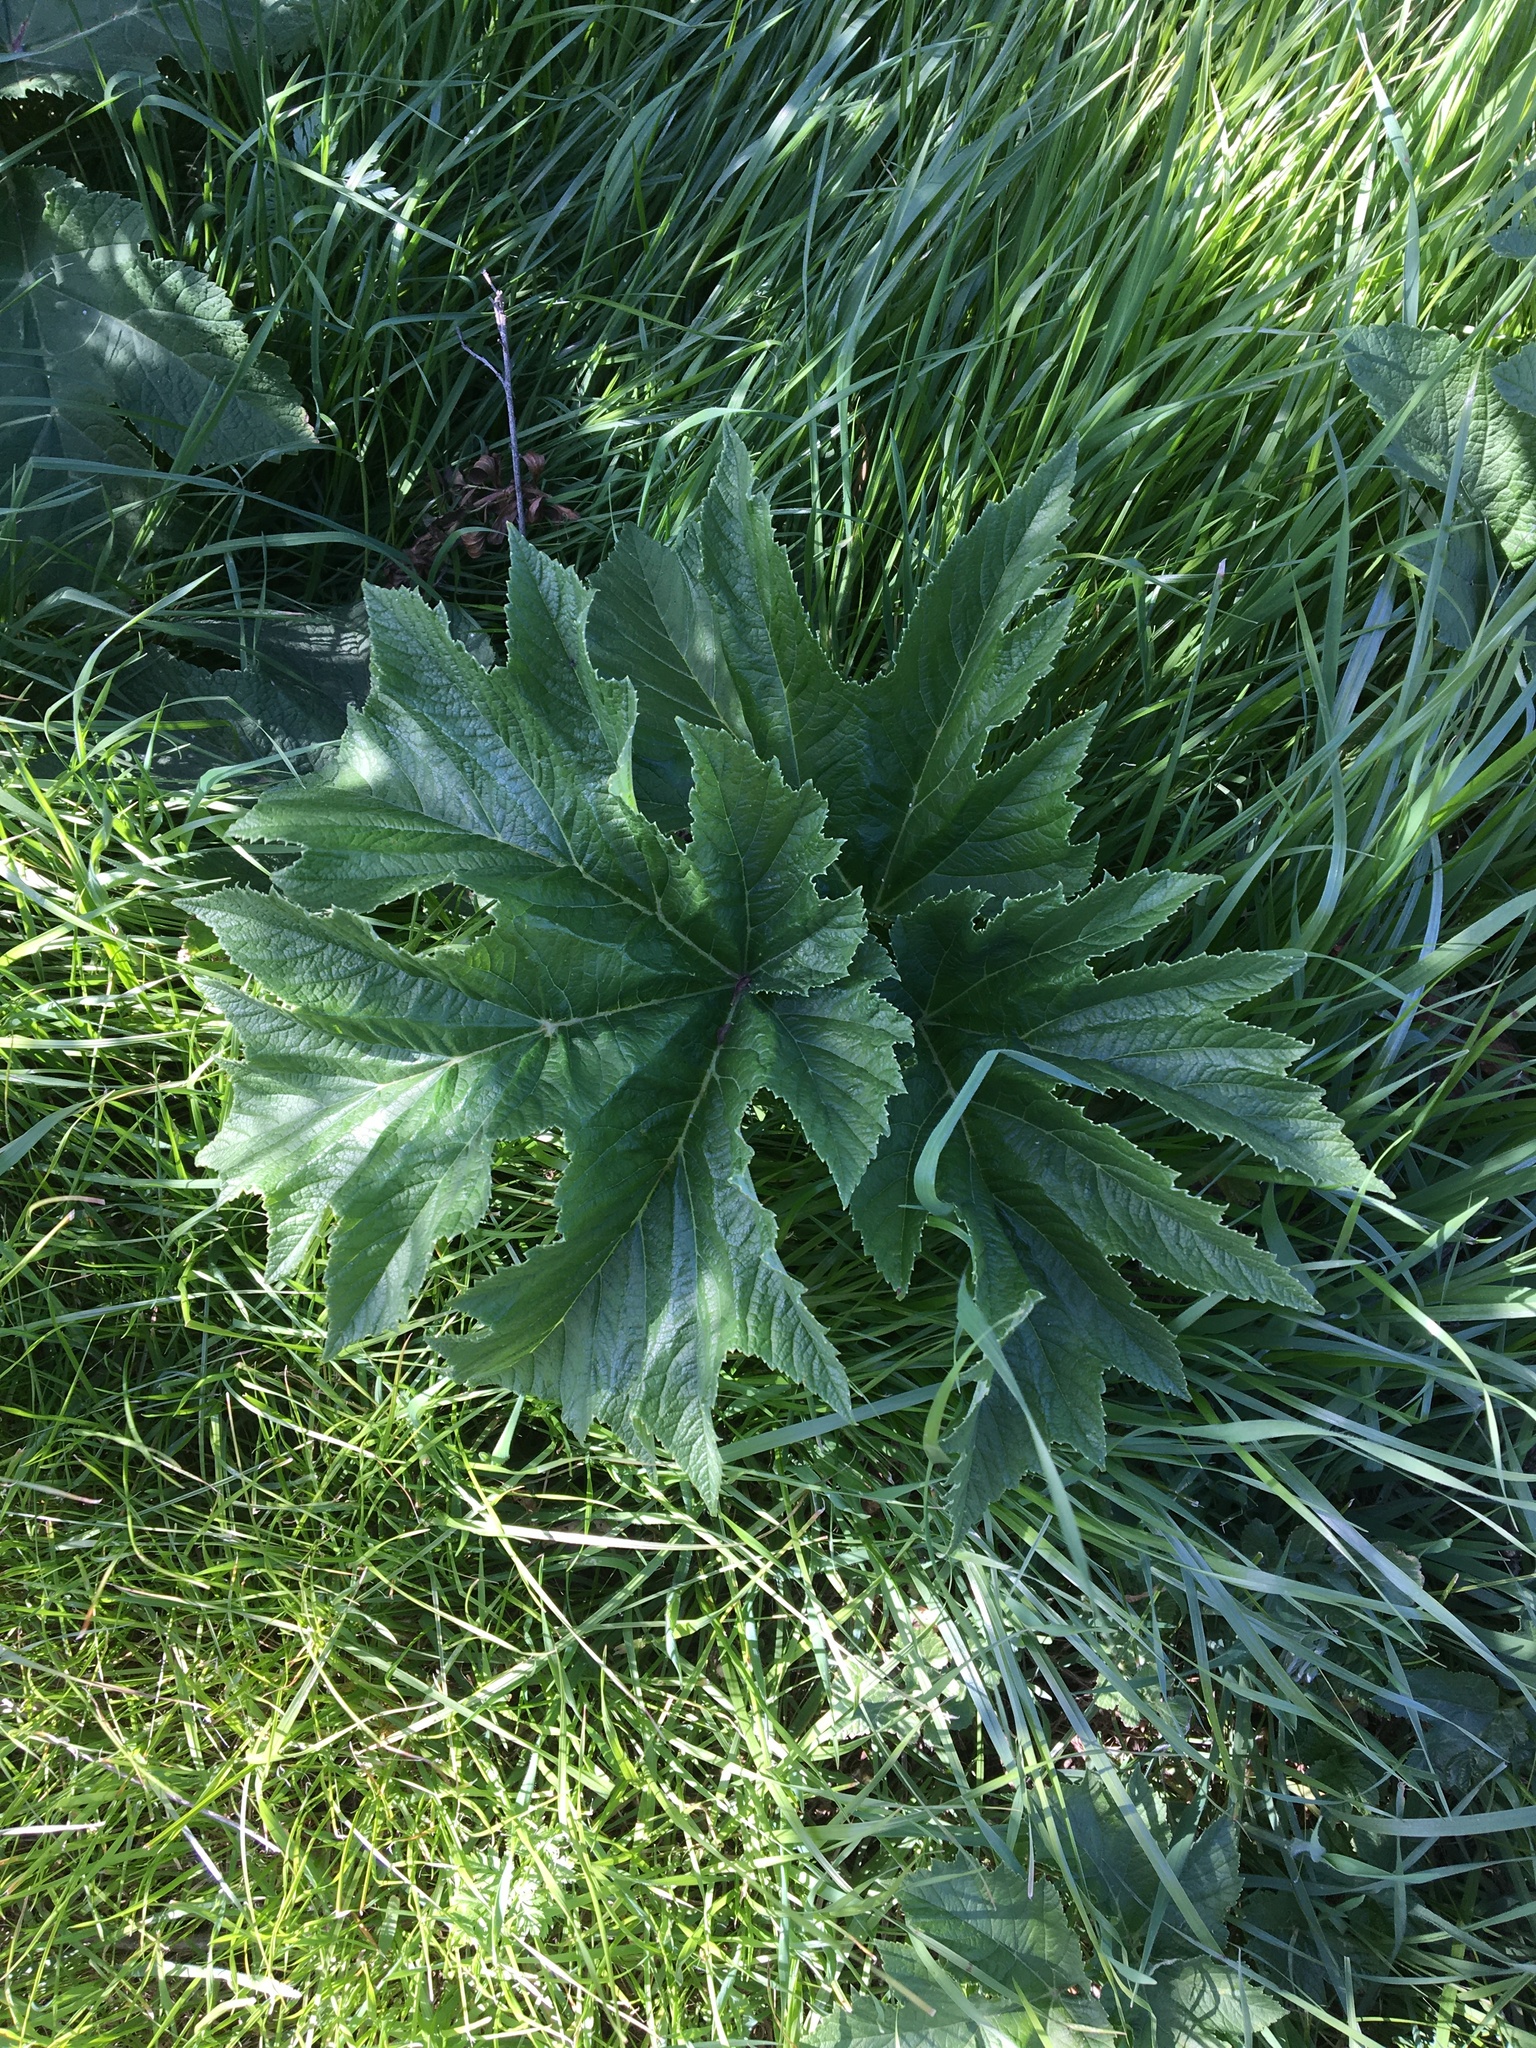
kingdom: Plantae
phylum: Tracheophyta
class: Magnoliopsida
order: Apiales
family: Apiaceae
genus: Heracleum
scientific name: Heracleum maximum
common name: American cow parsnip
